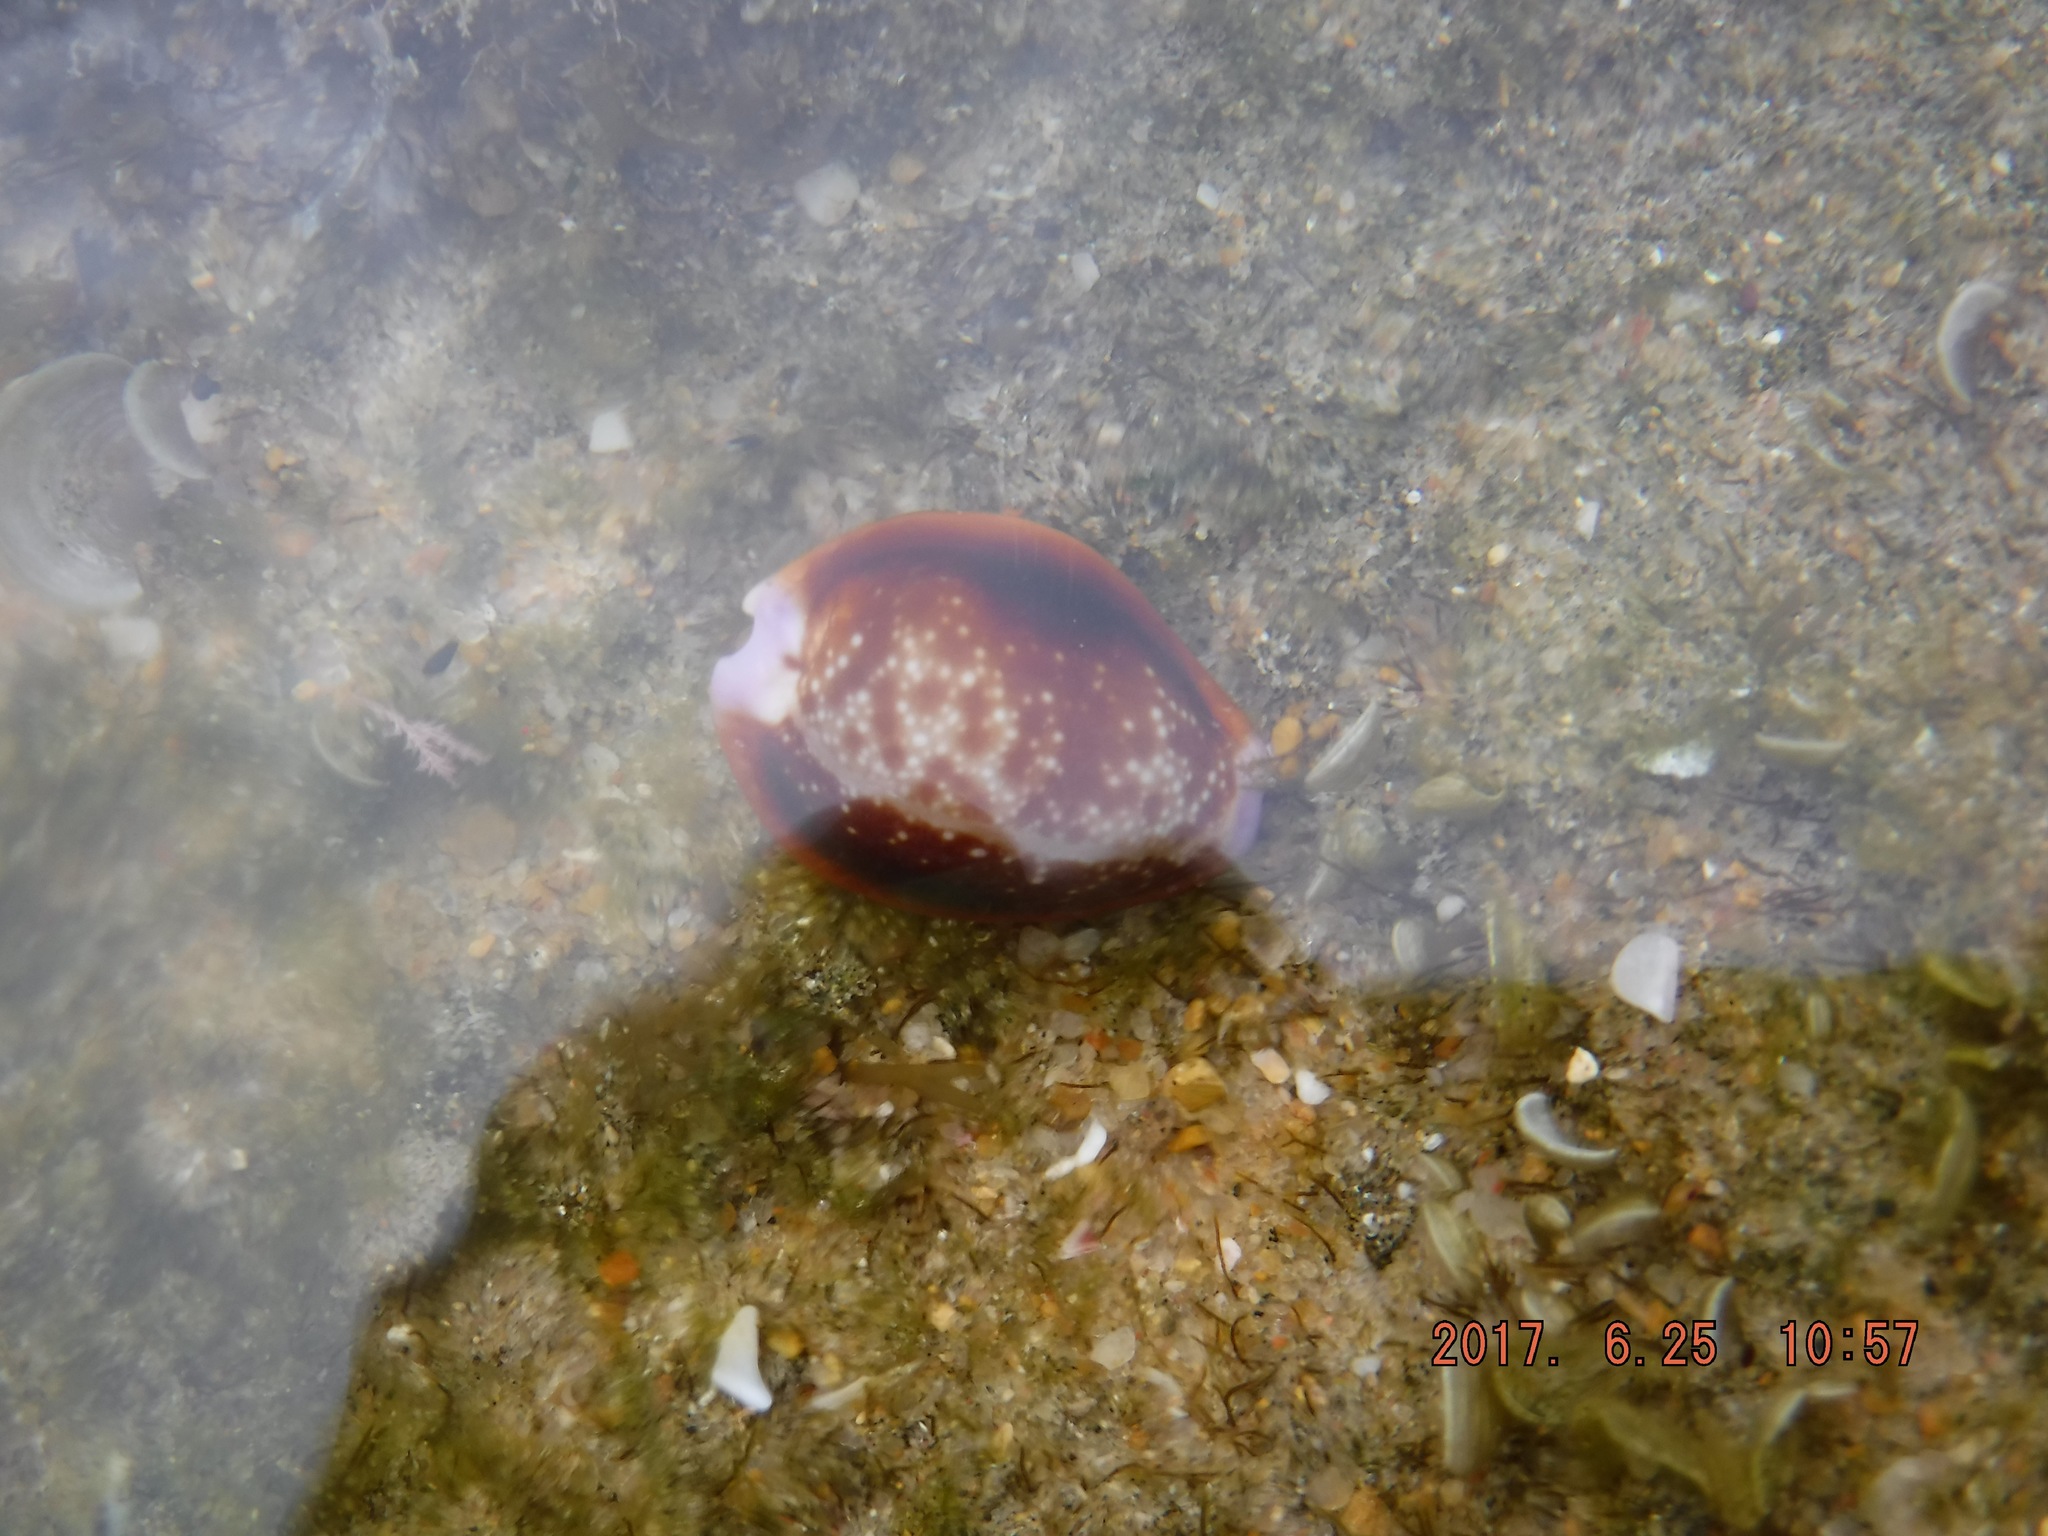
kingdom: Animalia
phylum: Mollusca
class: Gastropoda
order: Littorinimorpha
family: Cypraeidae
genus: Naria
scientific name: Naria helvola
